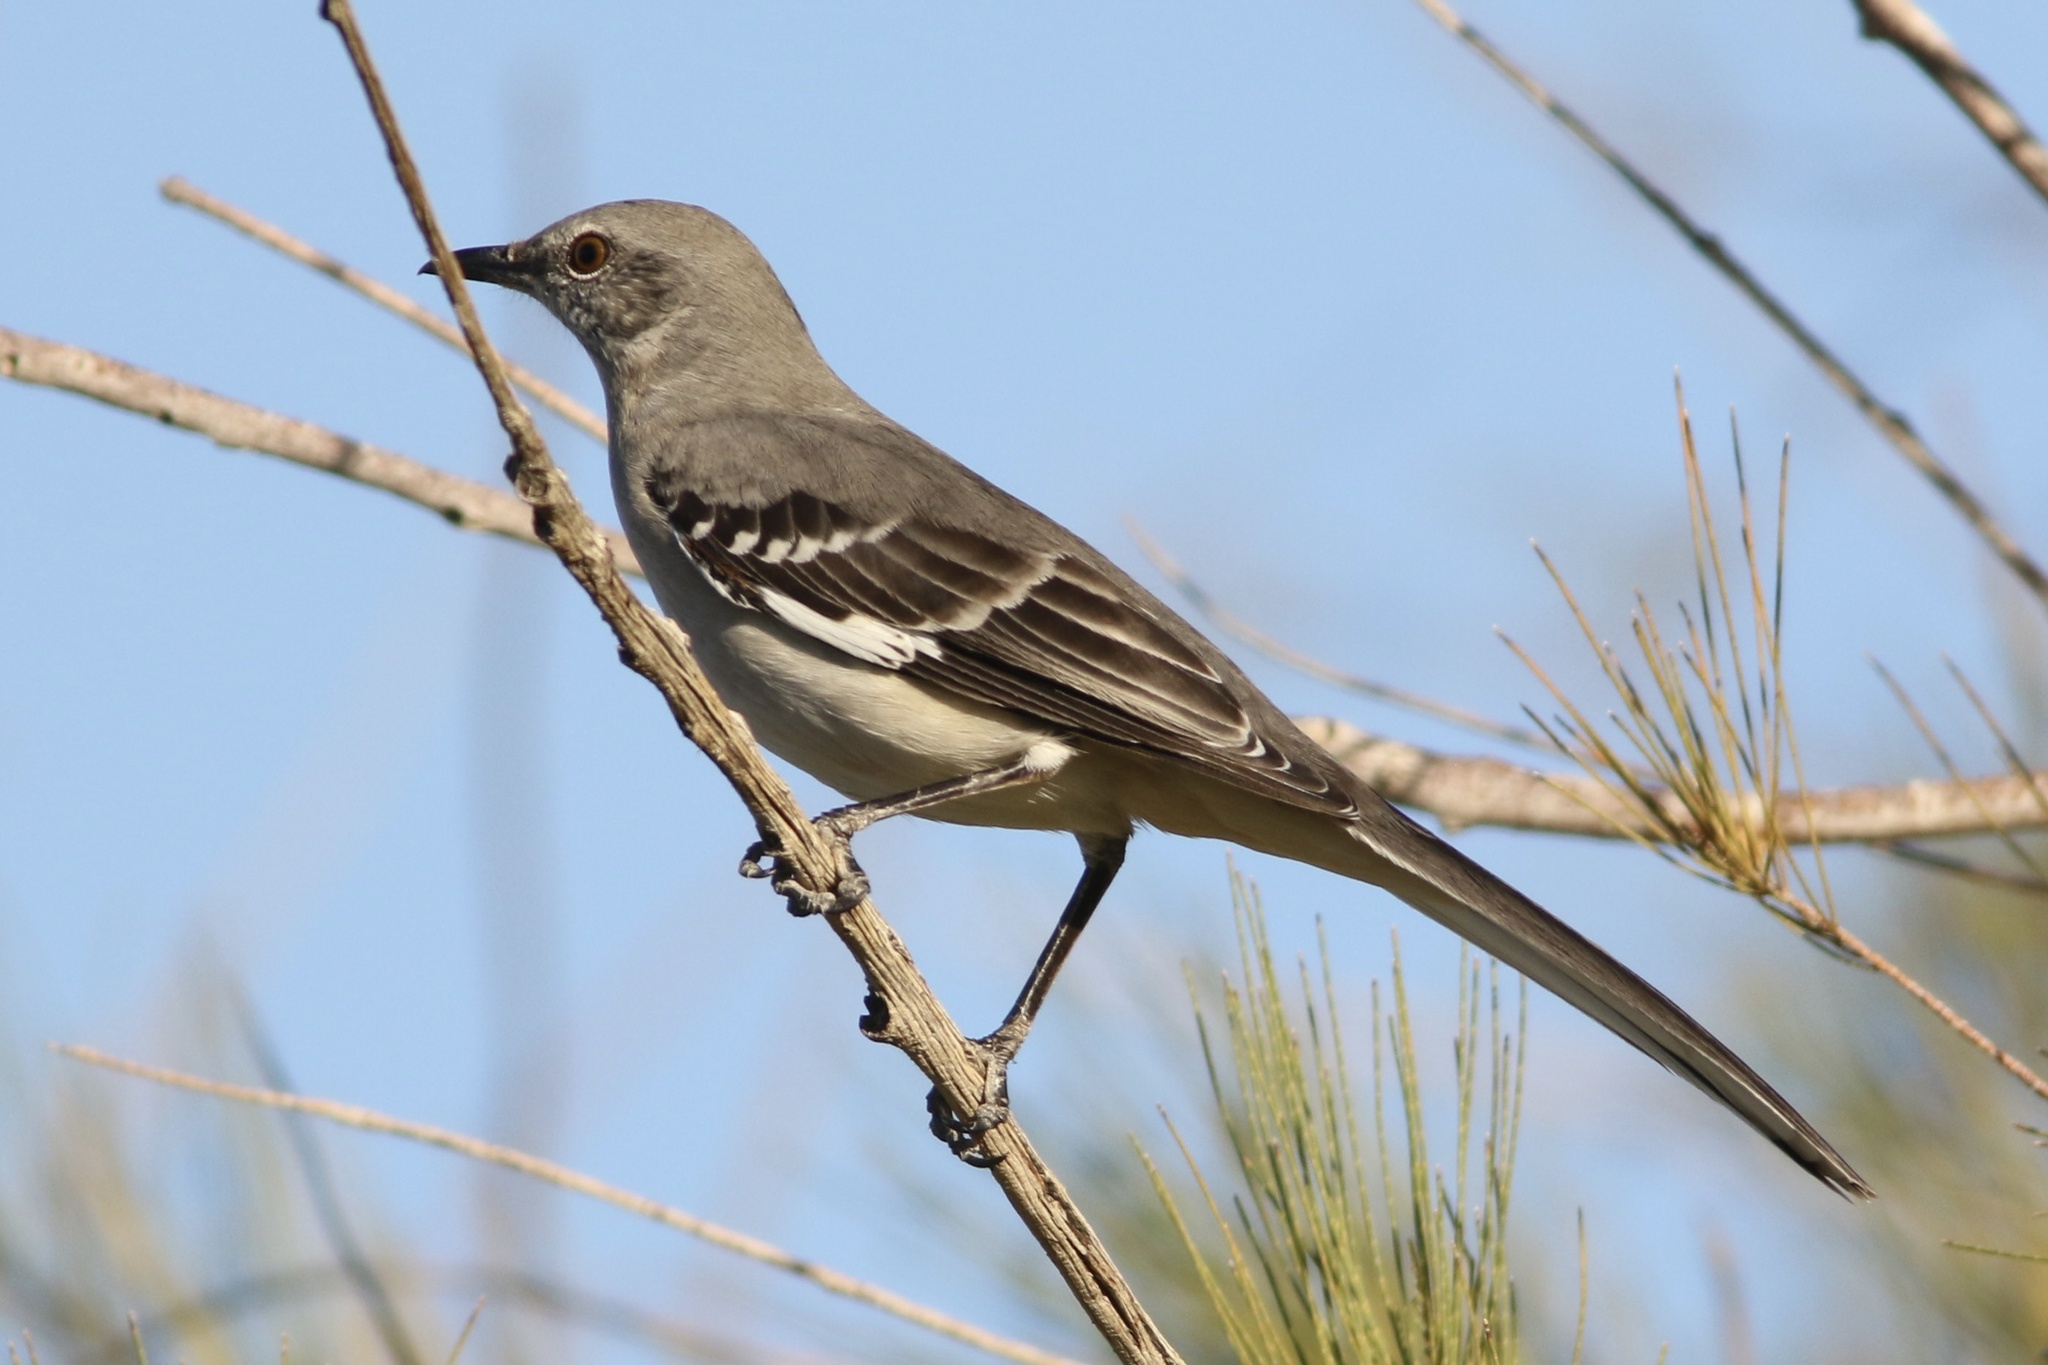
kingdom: Animalia
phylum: Chordata
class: Aves
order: Passeriformes
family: Mimidae
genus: Mimus
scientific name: Mimus polyglottos
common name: Northern mockingbird
